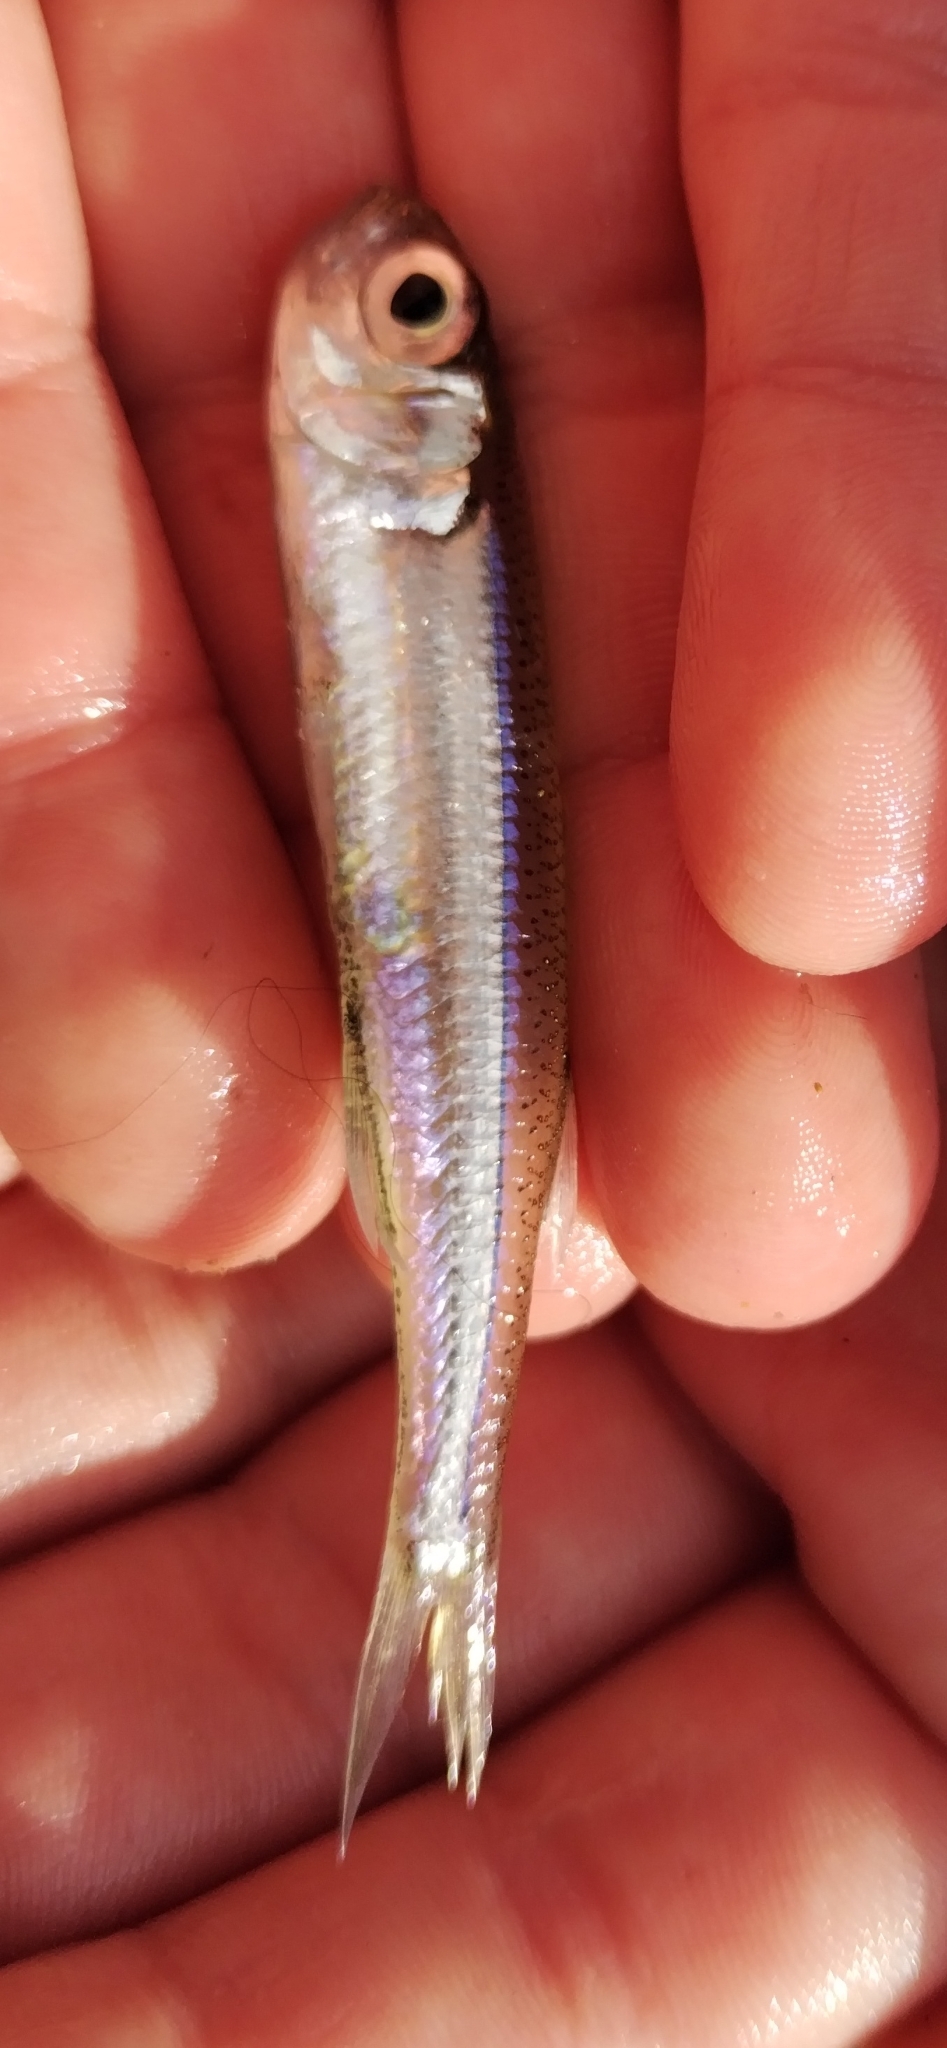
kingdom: Animalia
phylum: Chordata
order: Atheriniformes
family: Atherinidae
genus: Atherina
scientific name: Atherina boyeri
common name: Big-scale sand smelt
